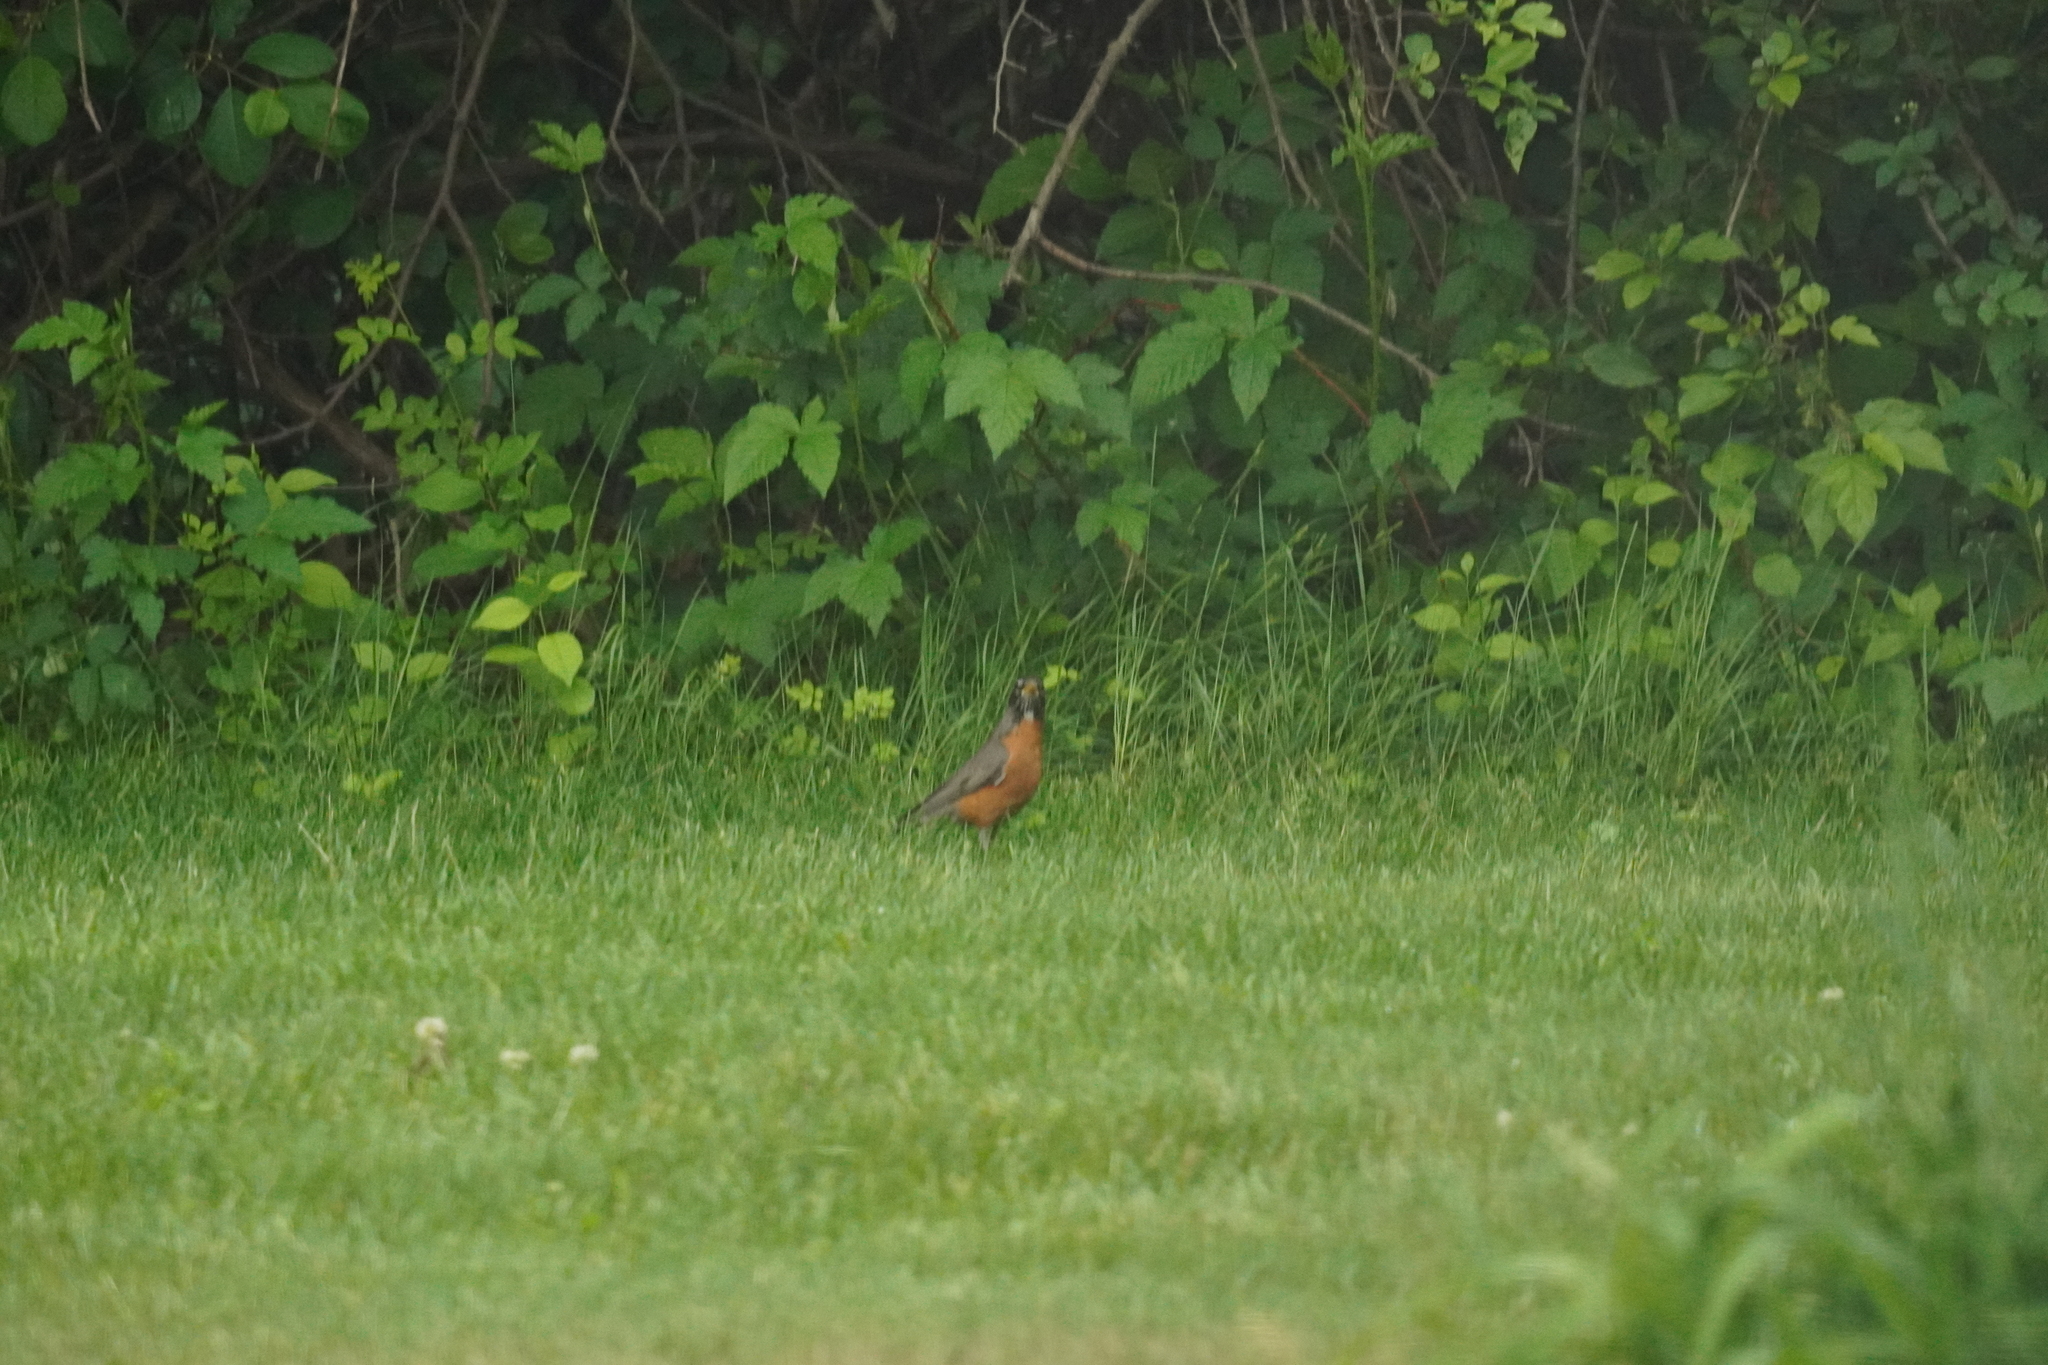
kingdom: Animalia
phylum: Chordata
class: Aves
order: Passeriformes
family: Turdidae
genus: Turdus
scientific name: Turdus migratorius
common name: American robin
